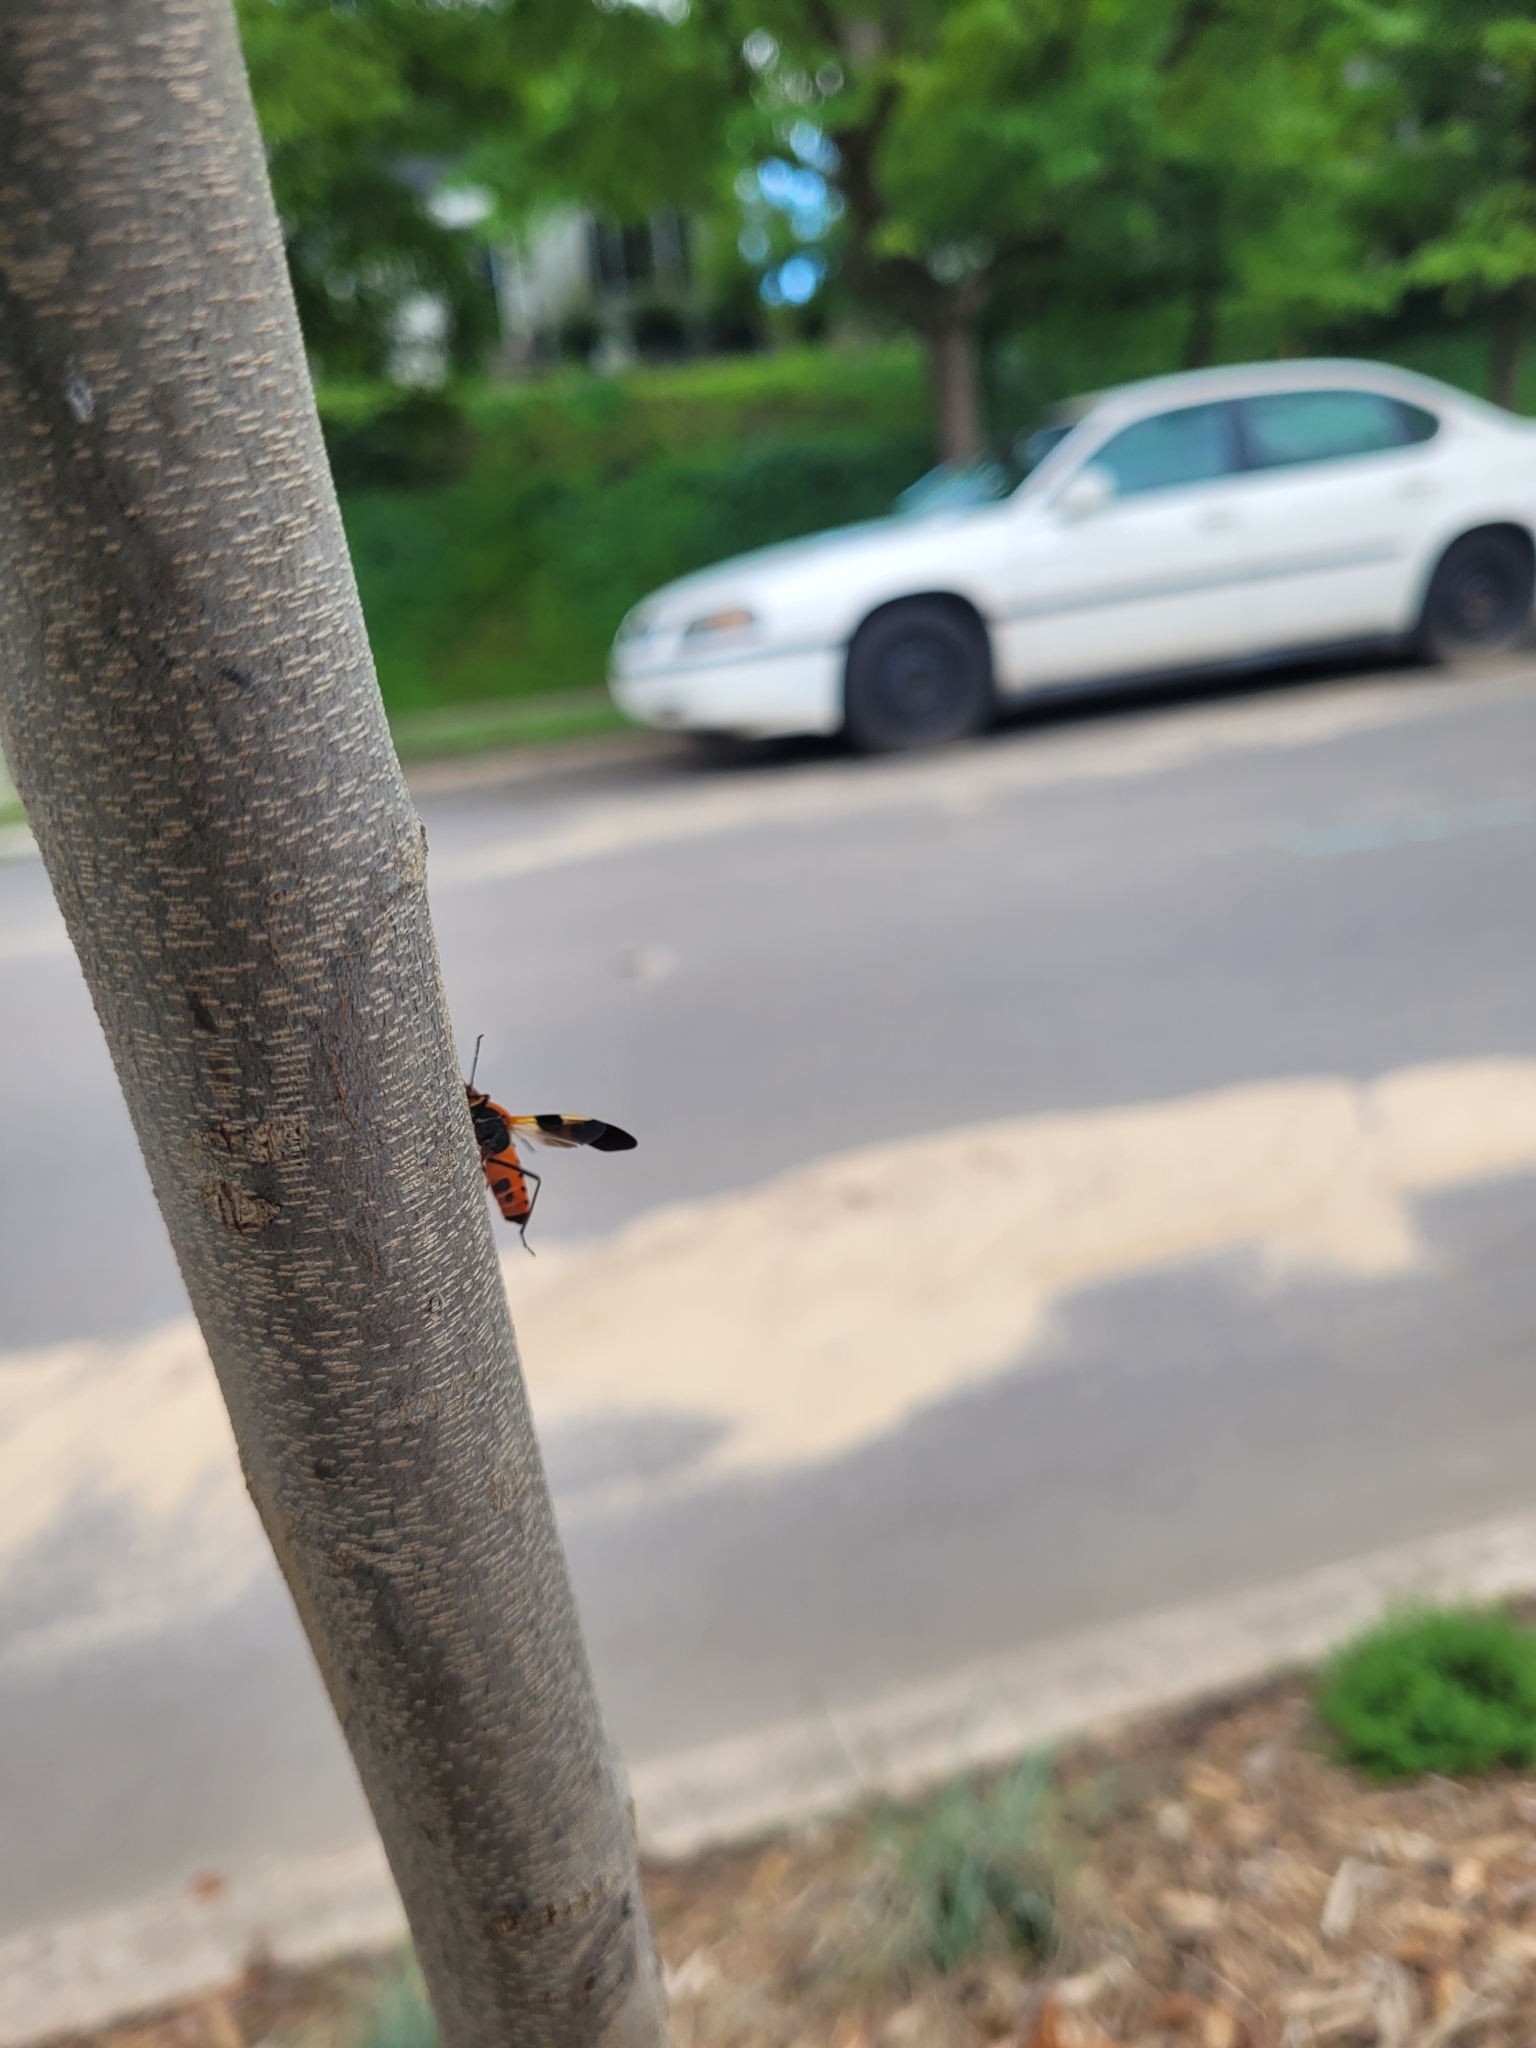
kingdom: Animalia
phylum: Arthropoda
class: Insecta
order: Hemiptera
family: Lygaeidae
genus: Oncopeltus
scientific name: Oncopeltus fasciatus
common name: Large milkweed bug
